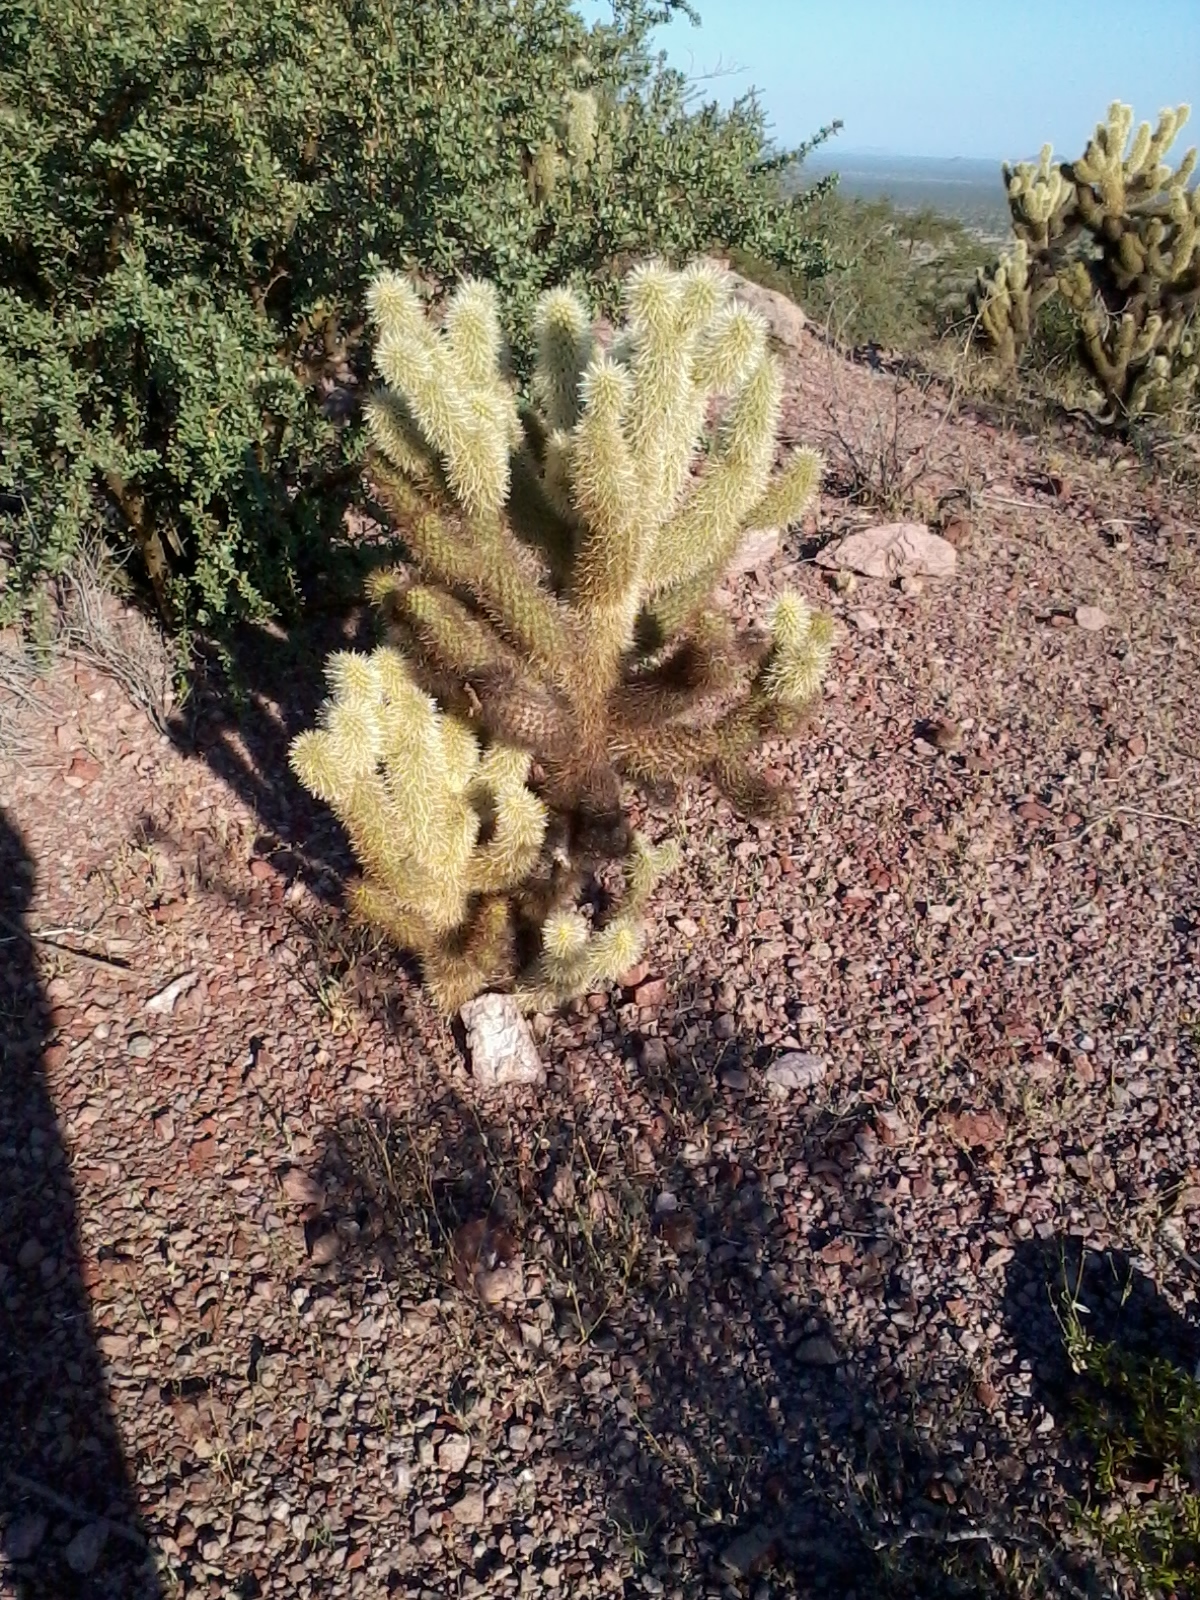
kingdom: Plantae
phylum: Tracheophyta
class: Magnoliopsida
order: Caryophyllales
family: Cactaceae
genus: Cylindropuntia
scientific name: Cylindropuntia fosbergii
